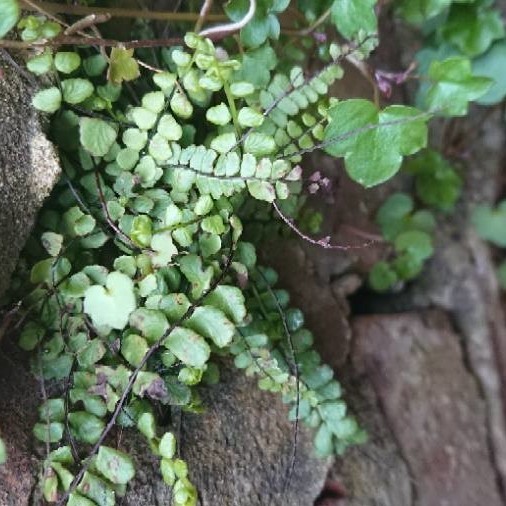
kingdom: Plantae
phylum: Tracheophyta
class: Polypodiopsida
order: Polypodiales
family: Aspleniaceae
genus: Asplenium
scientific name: Asplenium trichomanes
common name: Maidenhair spleenwort
